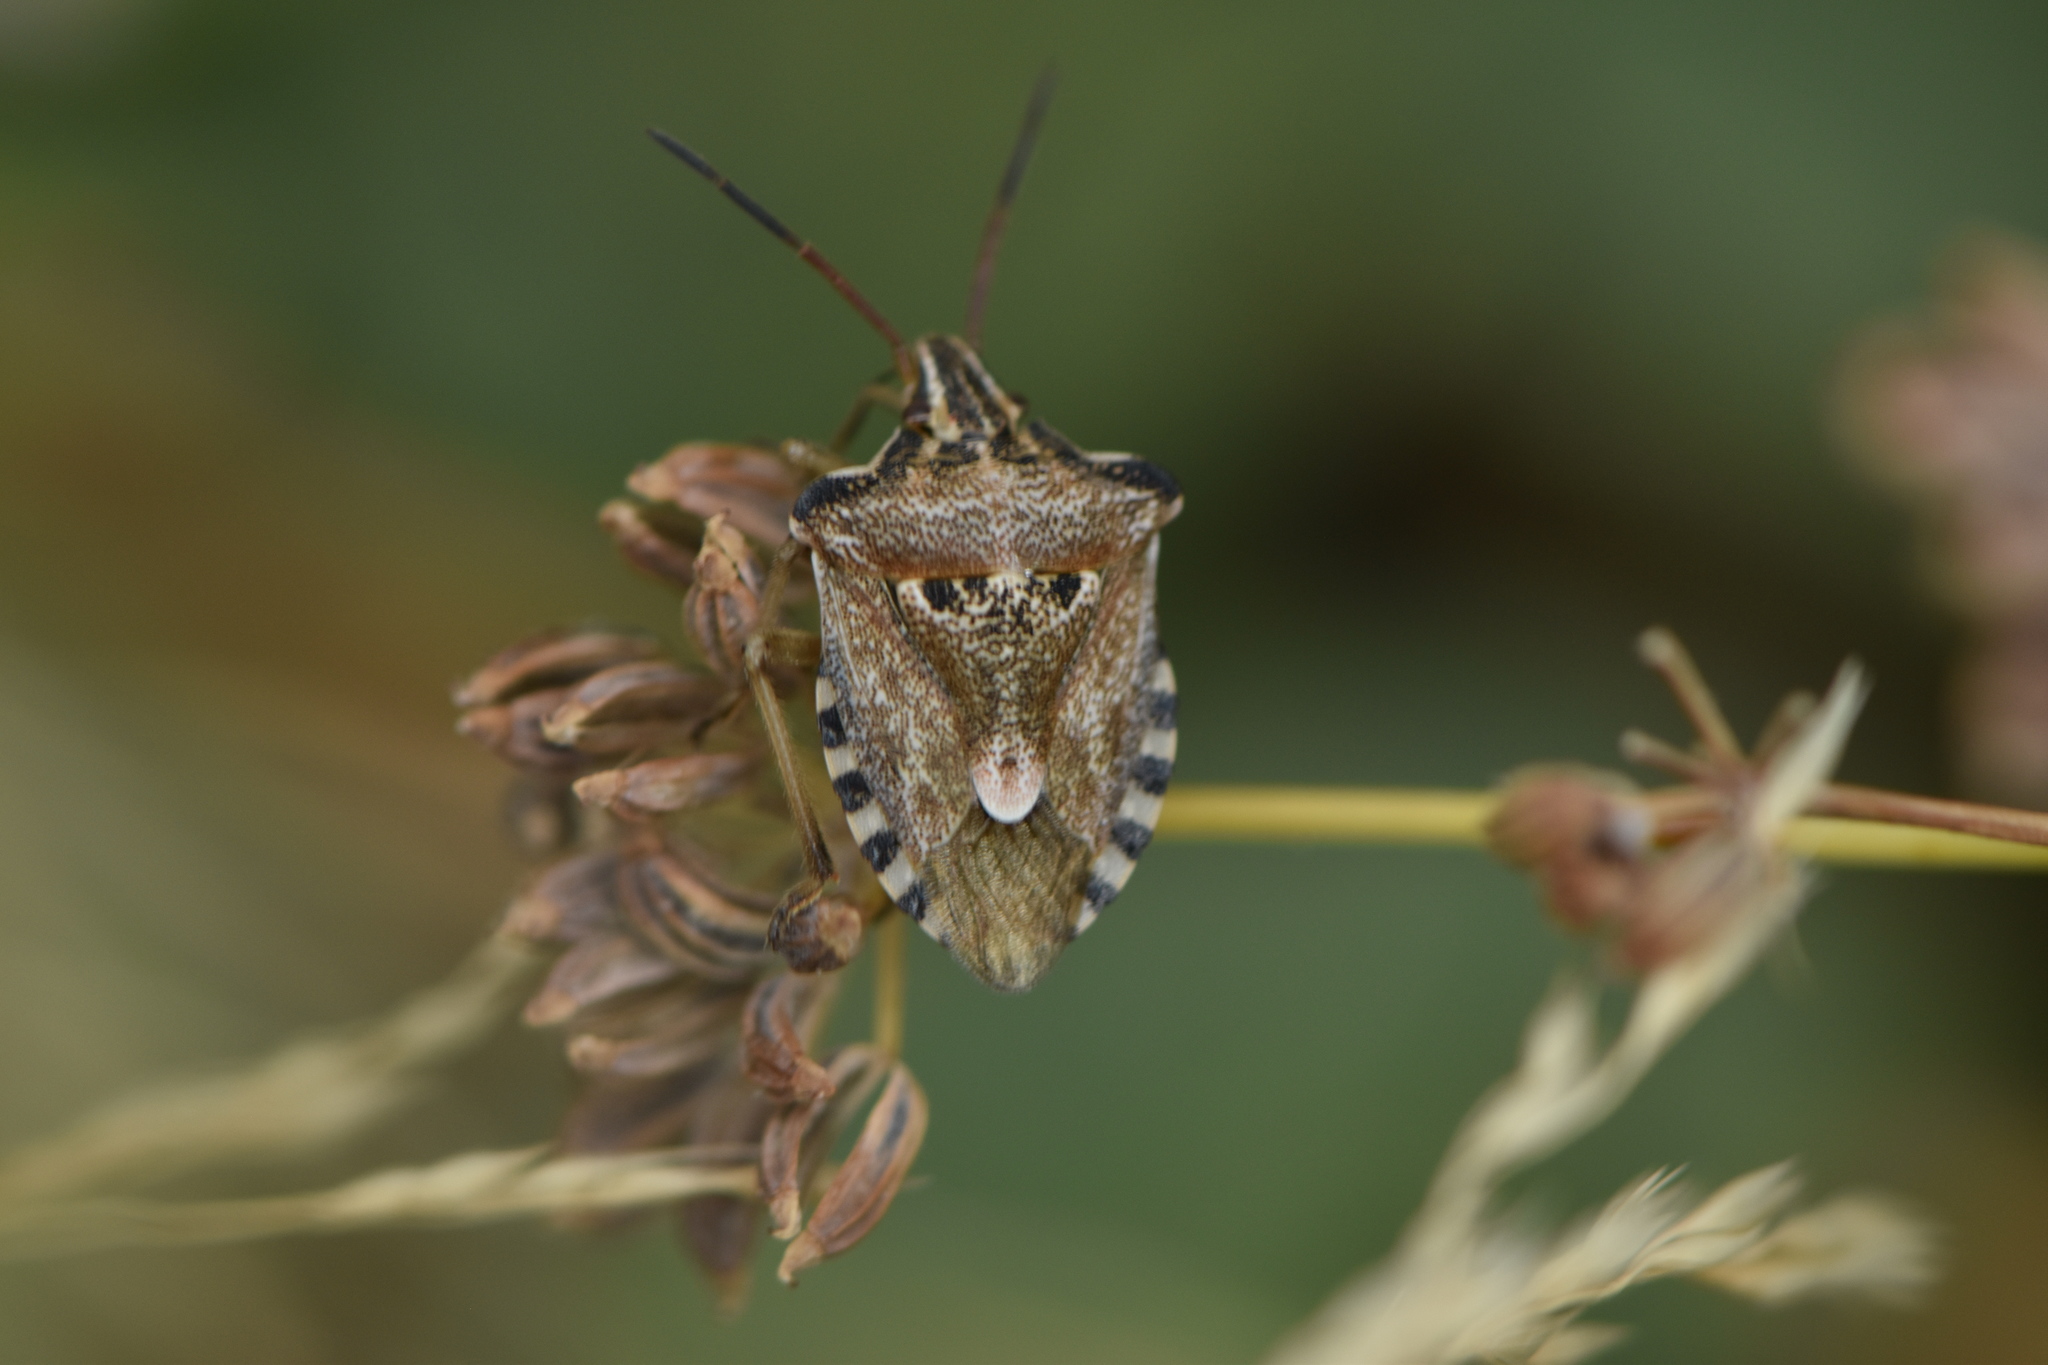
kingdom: Animalia
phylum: Arthropoda
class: Insecta
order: Hemiptera
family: Miridae
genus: Orthops
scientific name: Orthops kalmii
